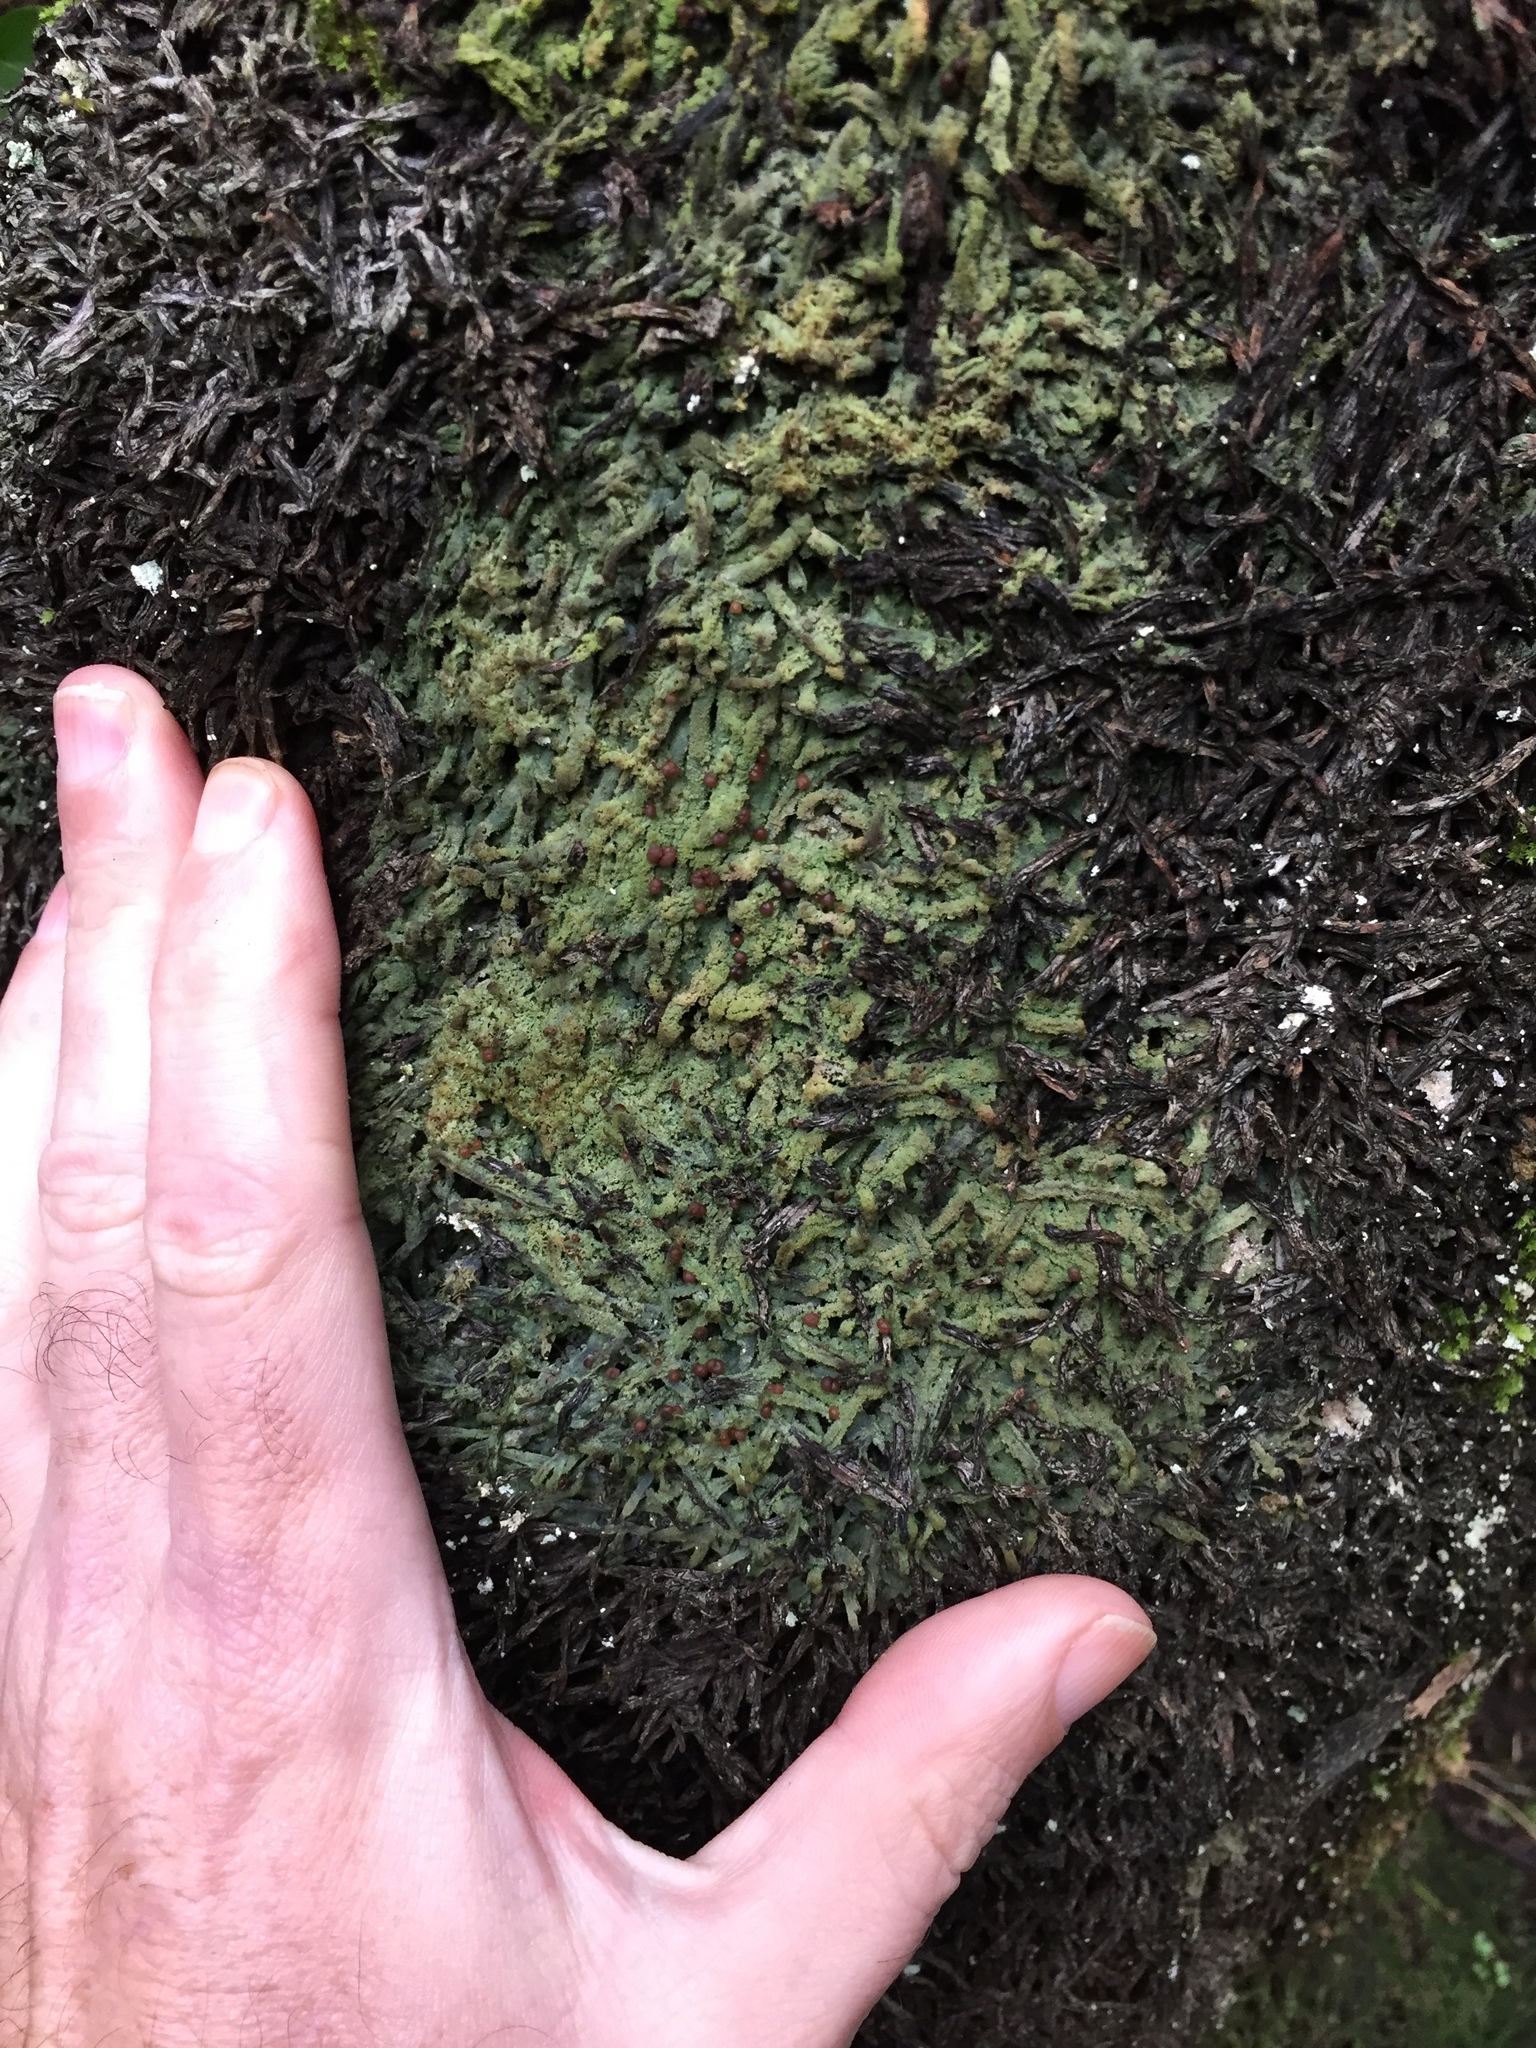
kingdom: Fungi
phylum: Ascomycota
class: Lecanoromycetes
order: Lecanorales
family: Byssolomataceae
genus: Micarea
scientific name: Micarea prasina
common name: Green dot lichen
